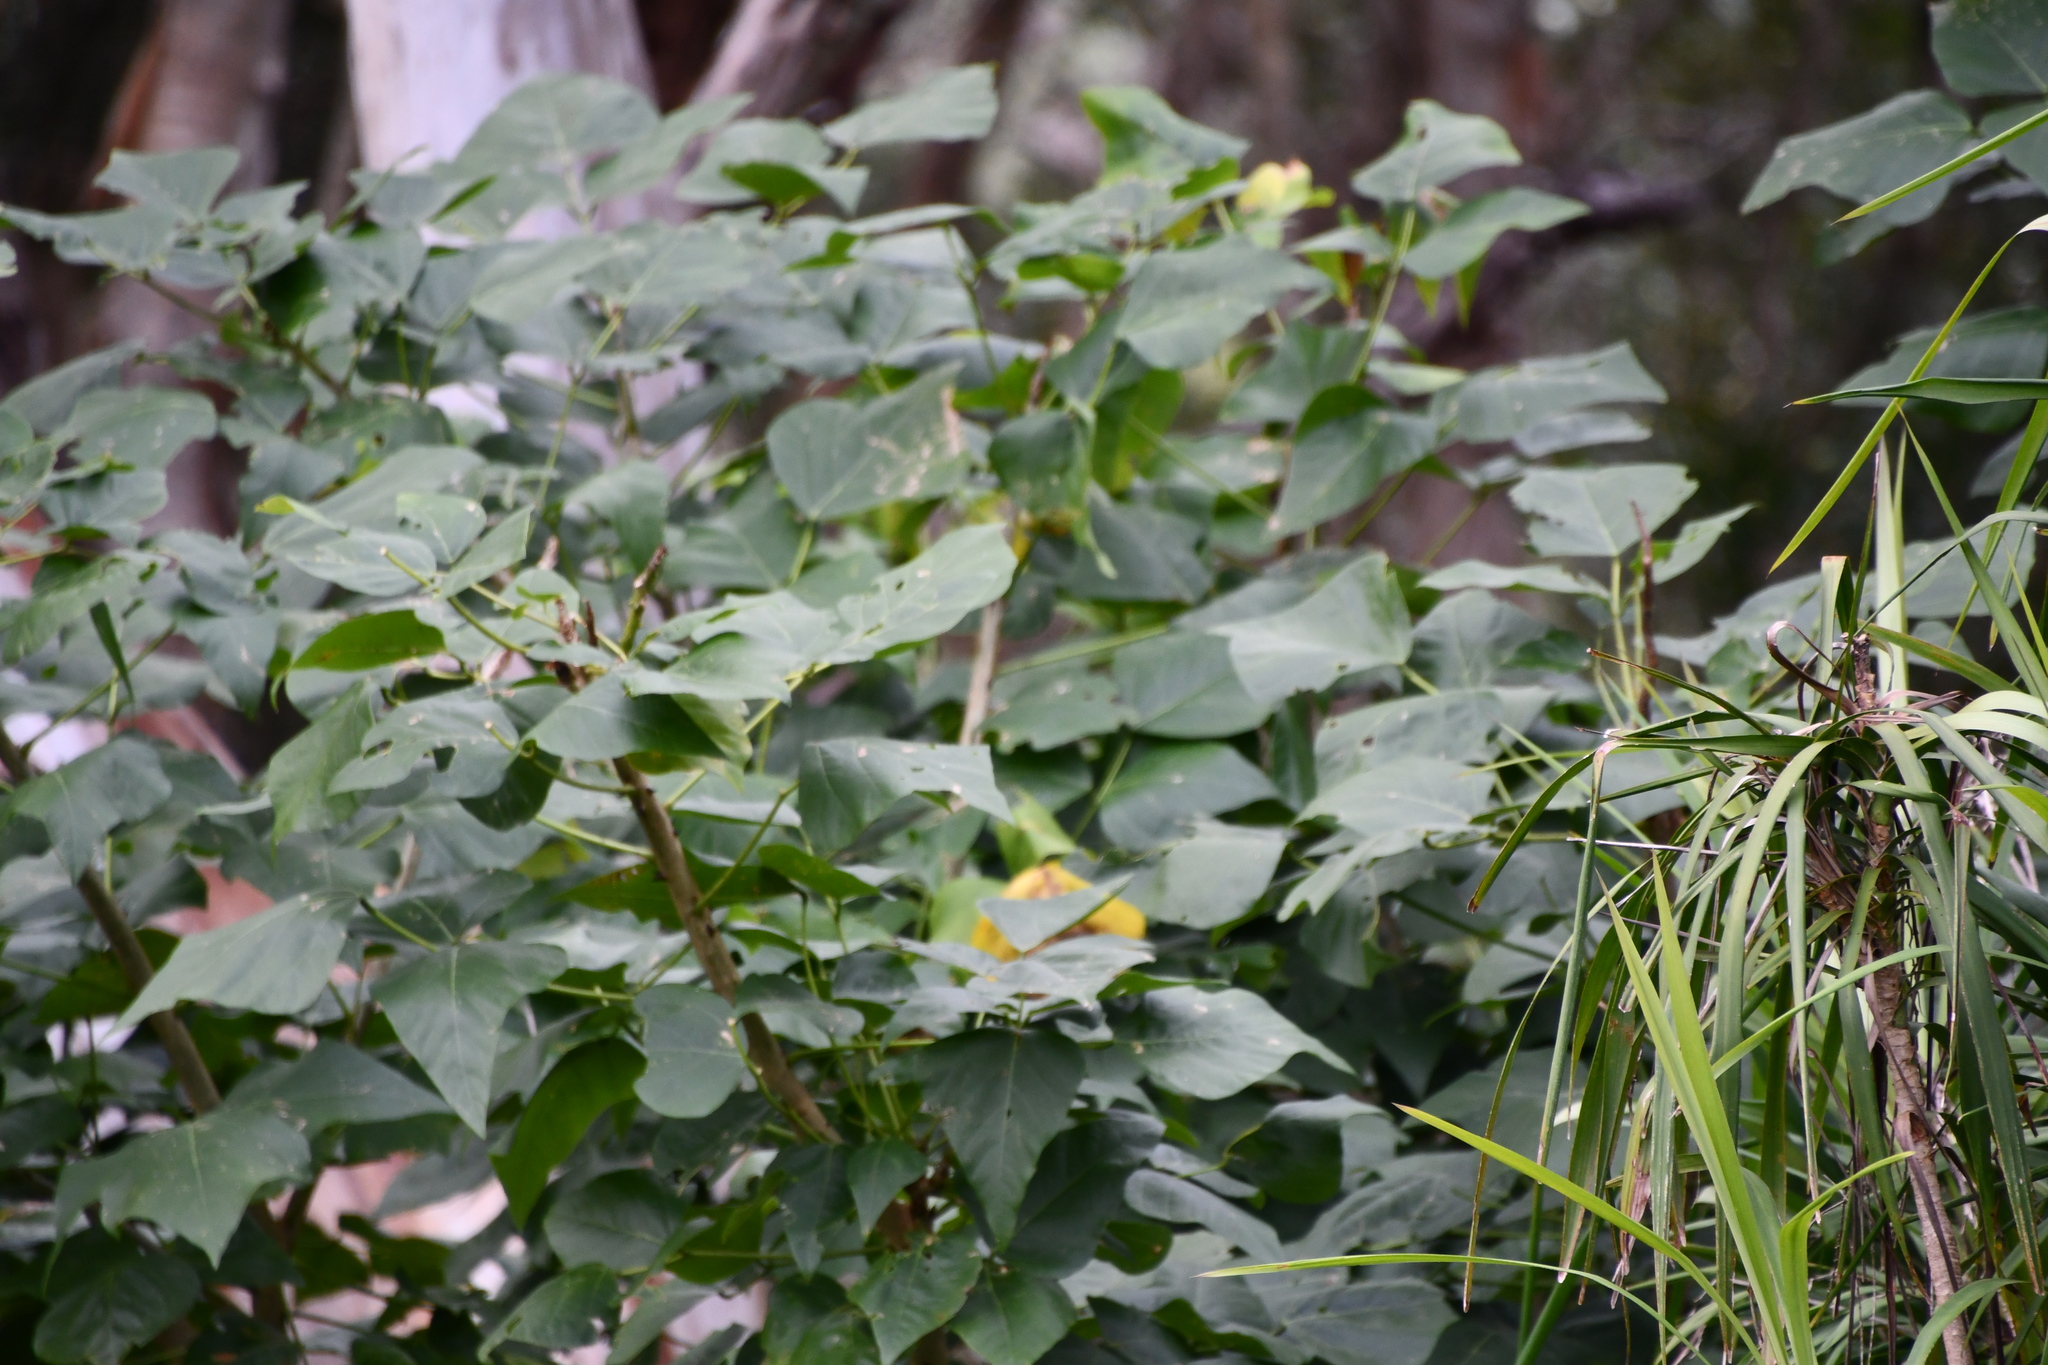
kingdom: Plantae
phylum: Tracheophyta
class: Magnoliopsida
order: Fabales
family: Fabaceae
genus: Erythrina
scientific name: Erythrina sykesii
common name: Coraltree
